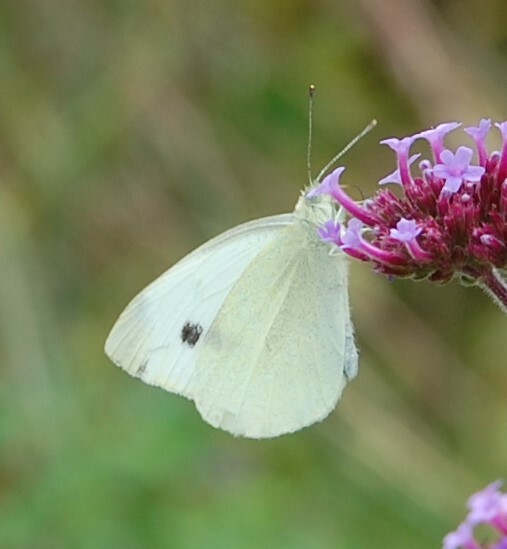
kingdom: Animalia
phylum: Arthropoda
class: Insecta
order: Lepidoptera
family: Pieridae
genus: Pieris
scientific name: Pieris rapae
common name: Small white
